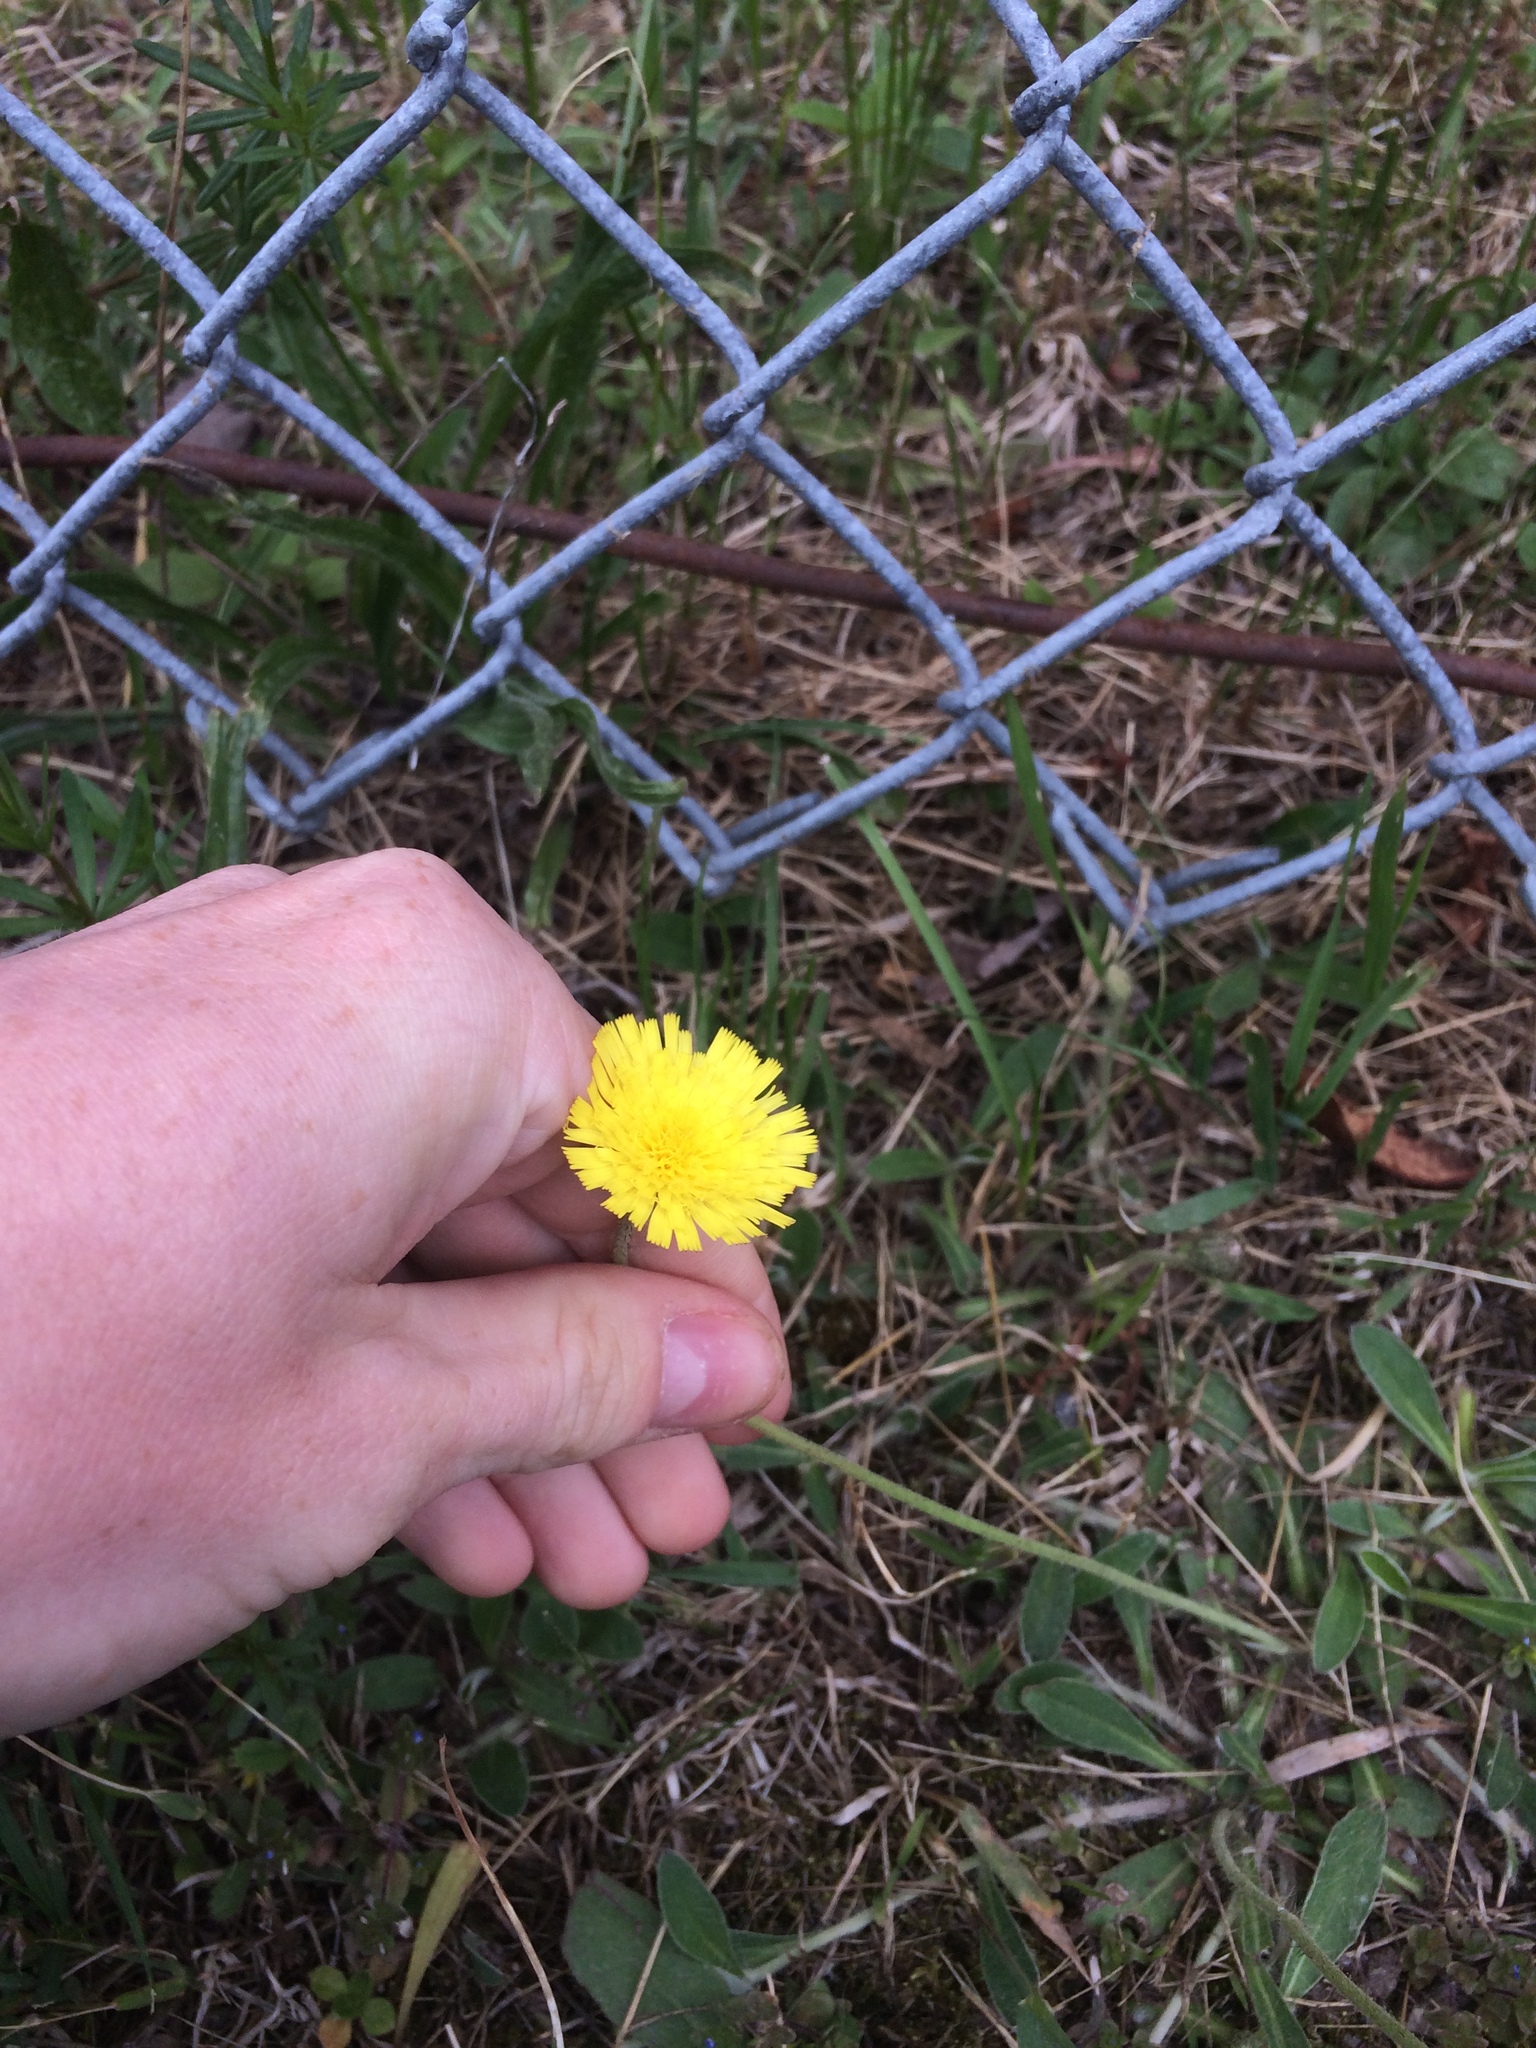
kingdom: Plantae
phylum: Tracheophyta
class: Magnoliopsida
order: Asterales
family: Asteraceae
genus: Pilosella
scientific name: Pilosella officinarum
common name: Mouse-ear hawkweed
